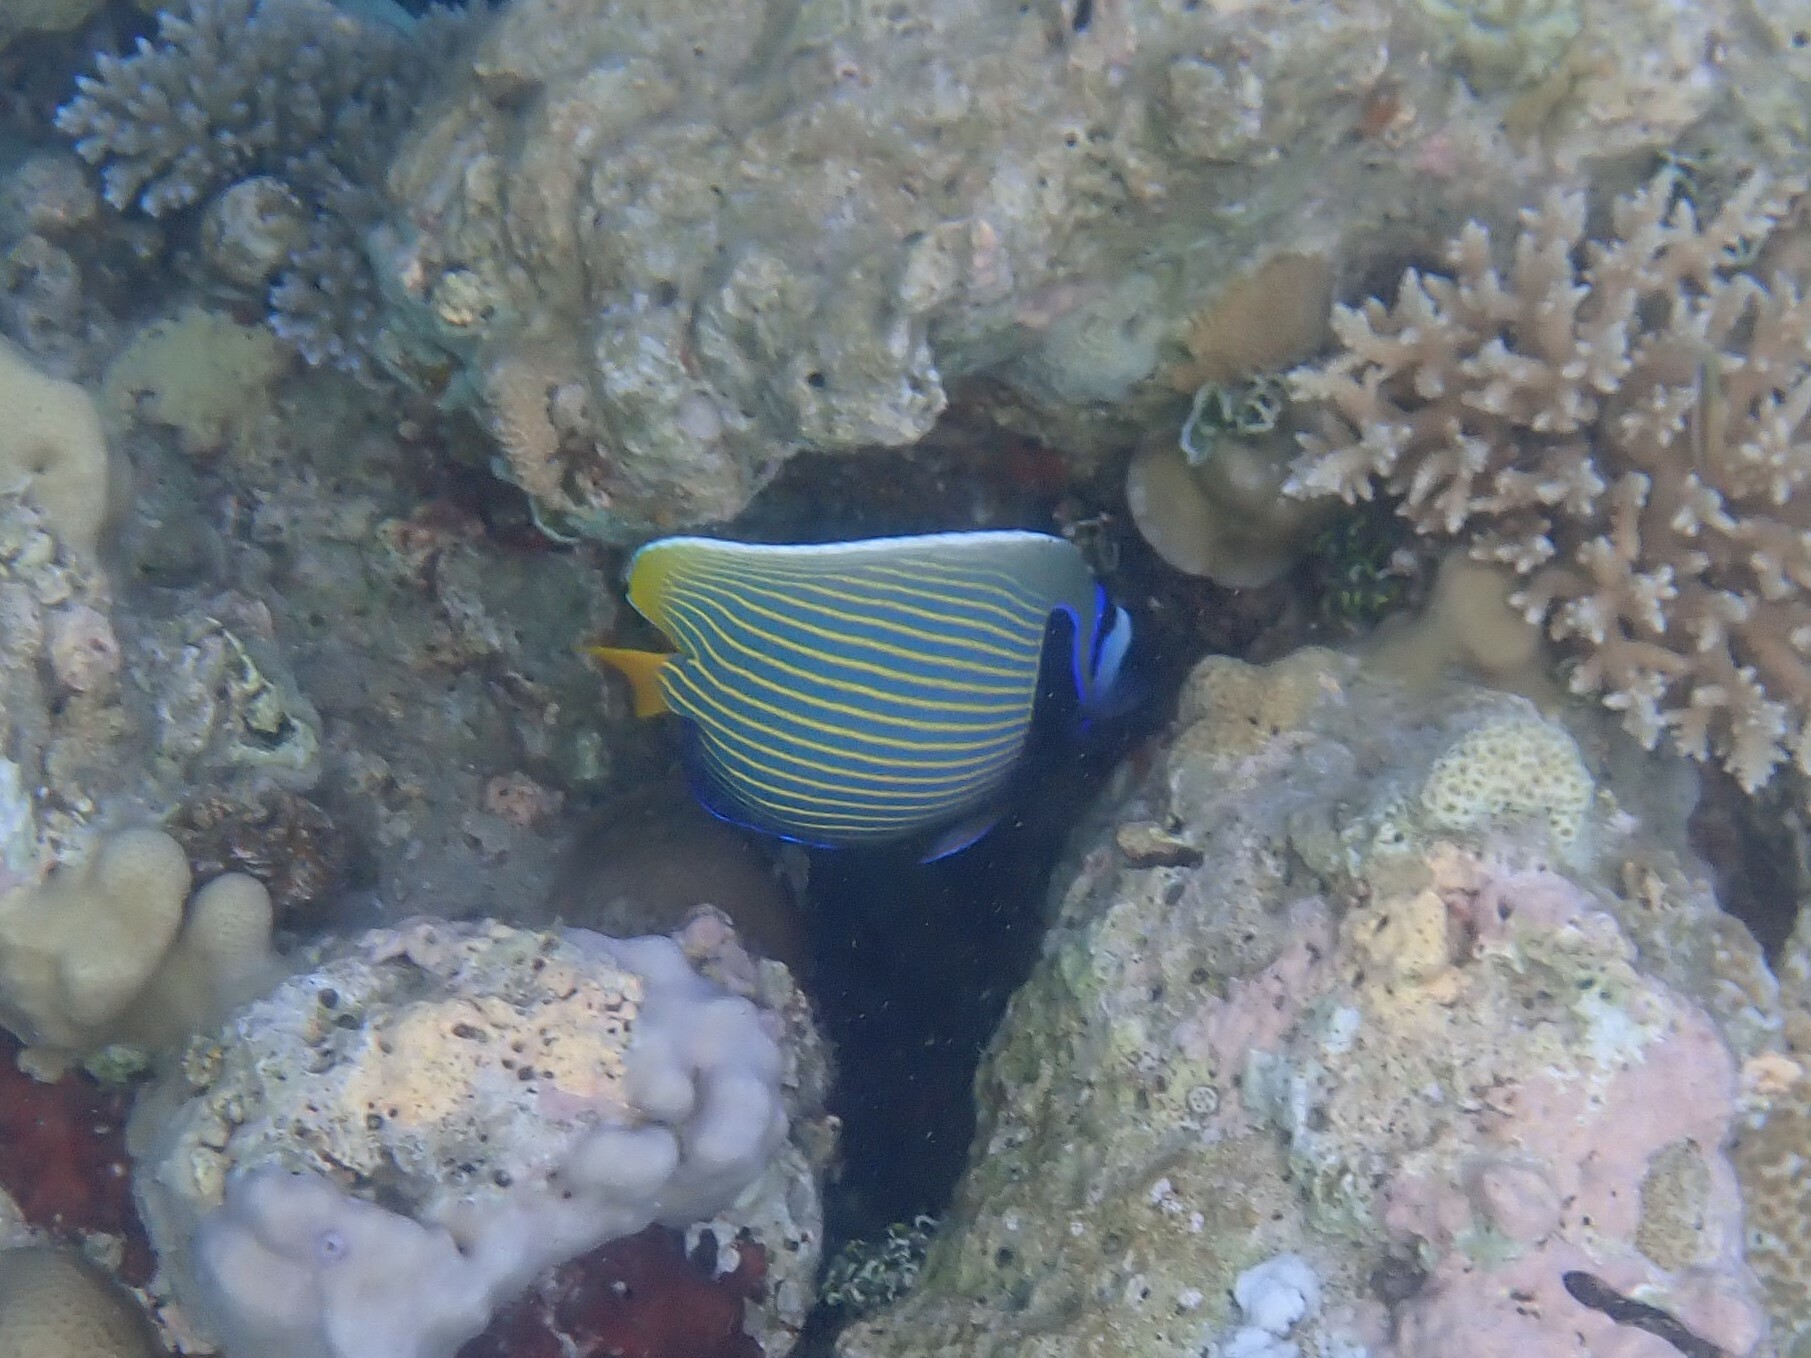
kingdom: Animalia
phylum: Chordata
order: Perciformes
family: Pomacanthidae
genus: Pomacanthus
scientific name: Pomacanthus imperator
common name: Emperor angelfish
